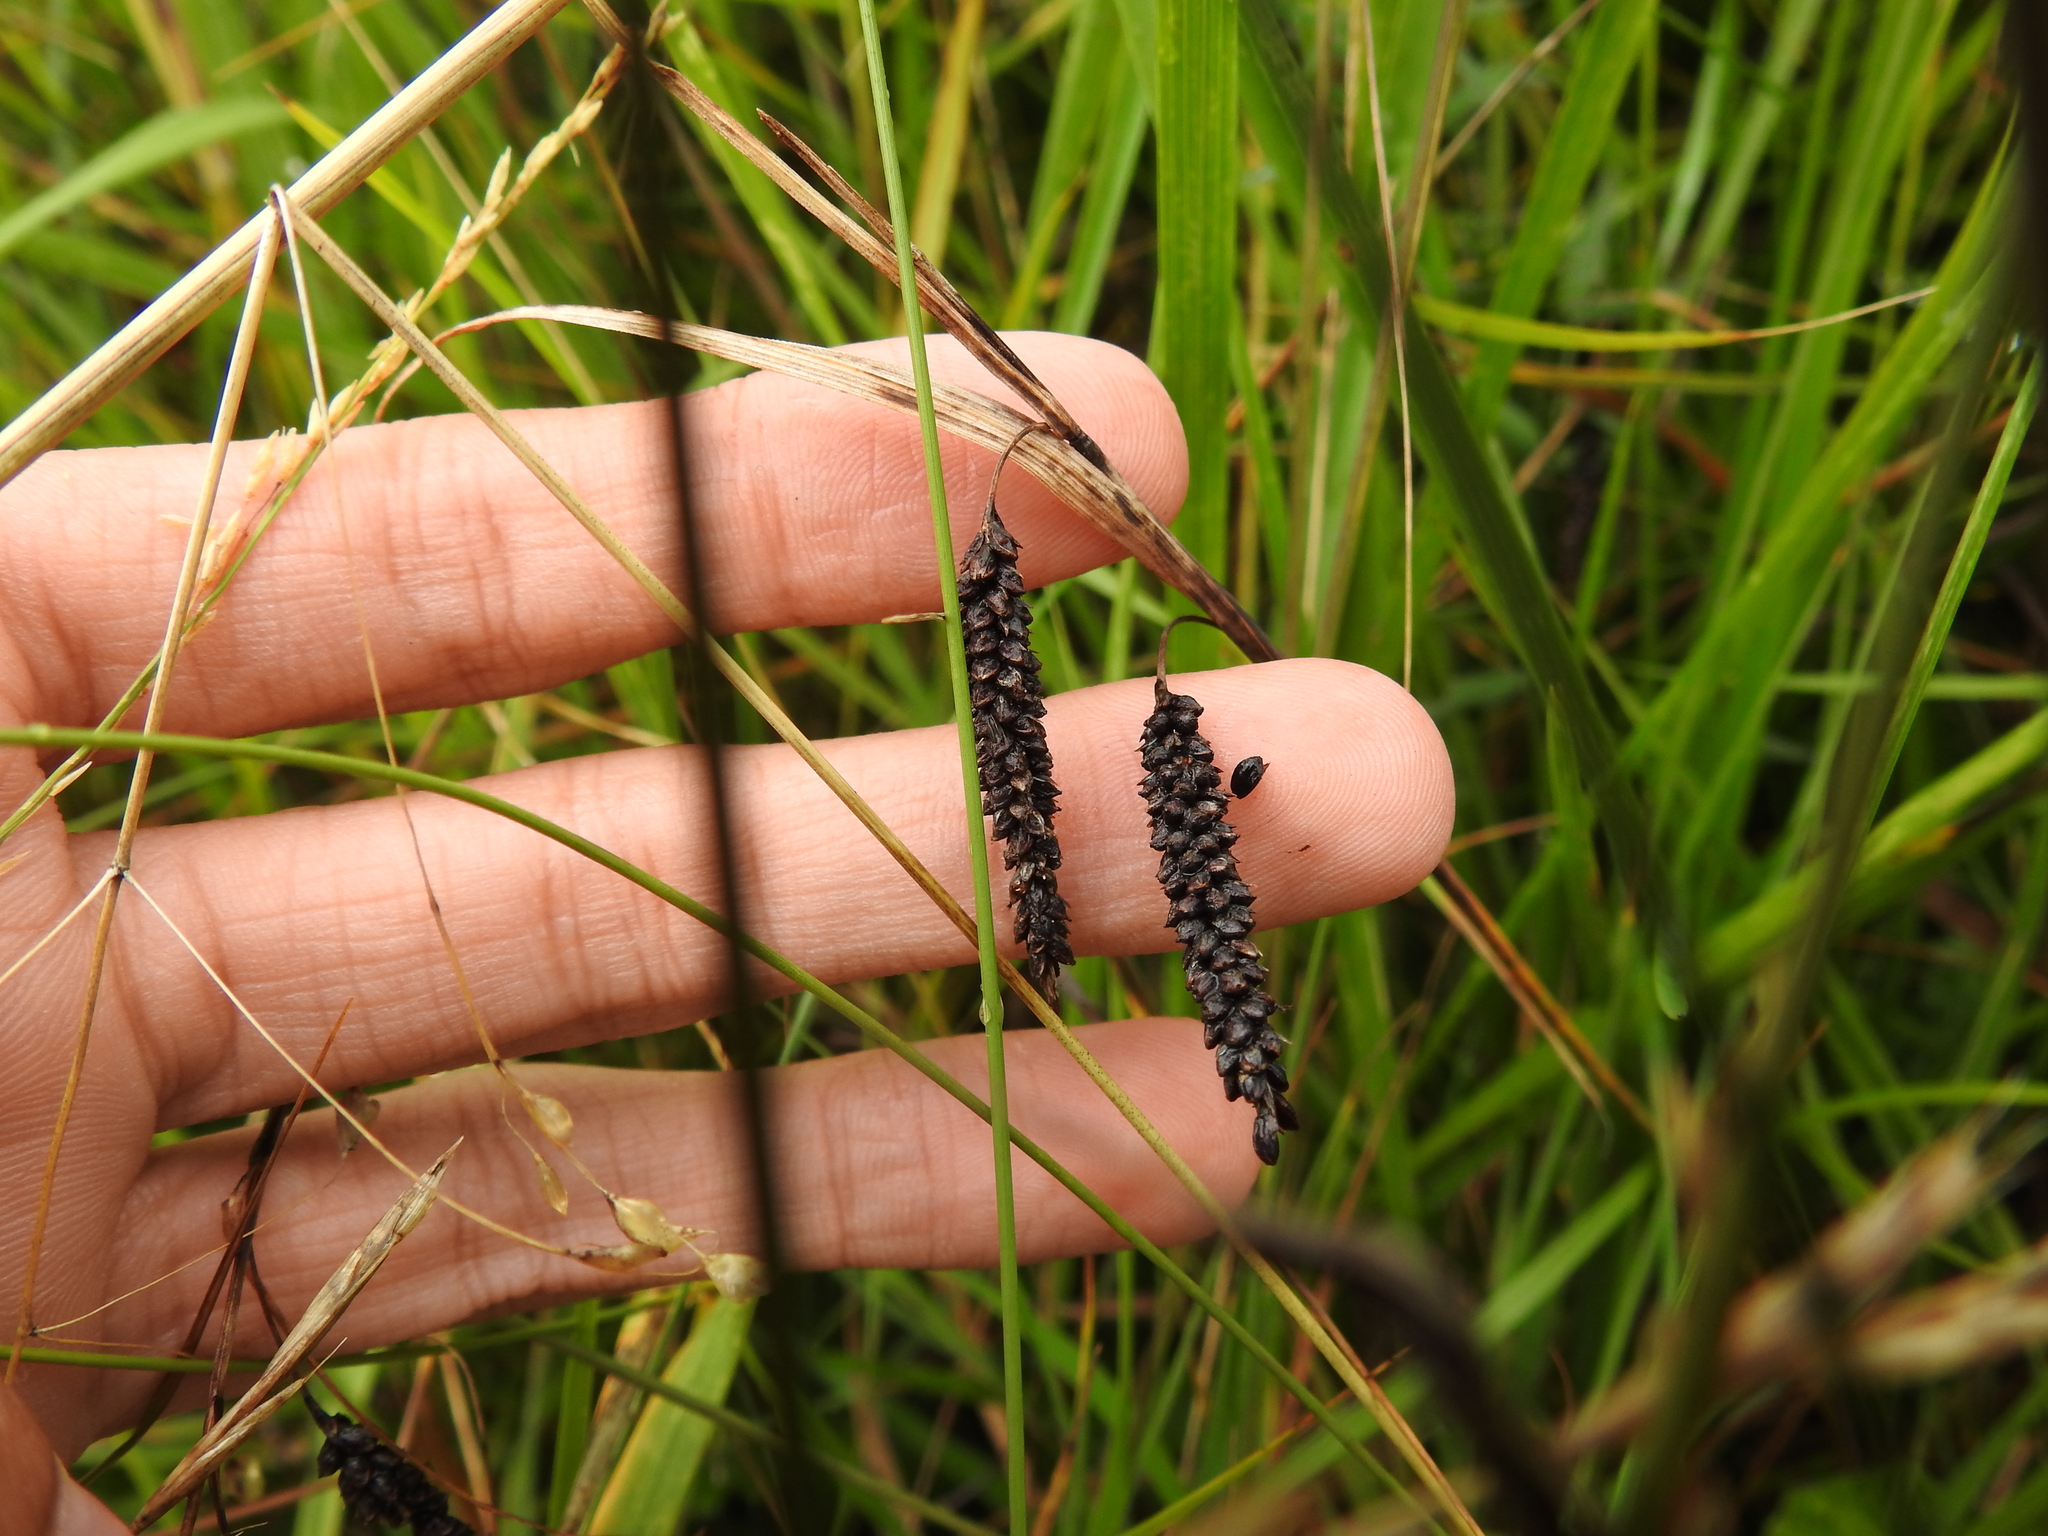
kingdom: Plantae
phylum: Tracheophyta
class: Liliopsida
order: Poales
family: Cyperaceae
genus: Carex
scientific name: Carex flacca
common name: Glaucous sedge
